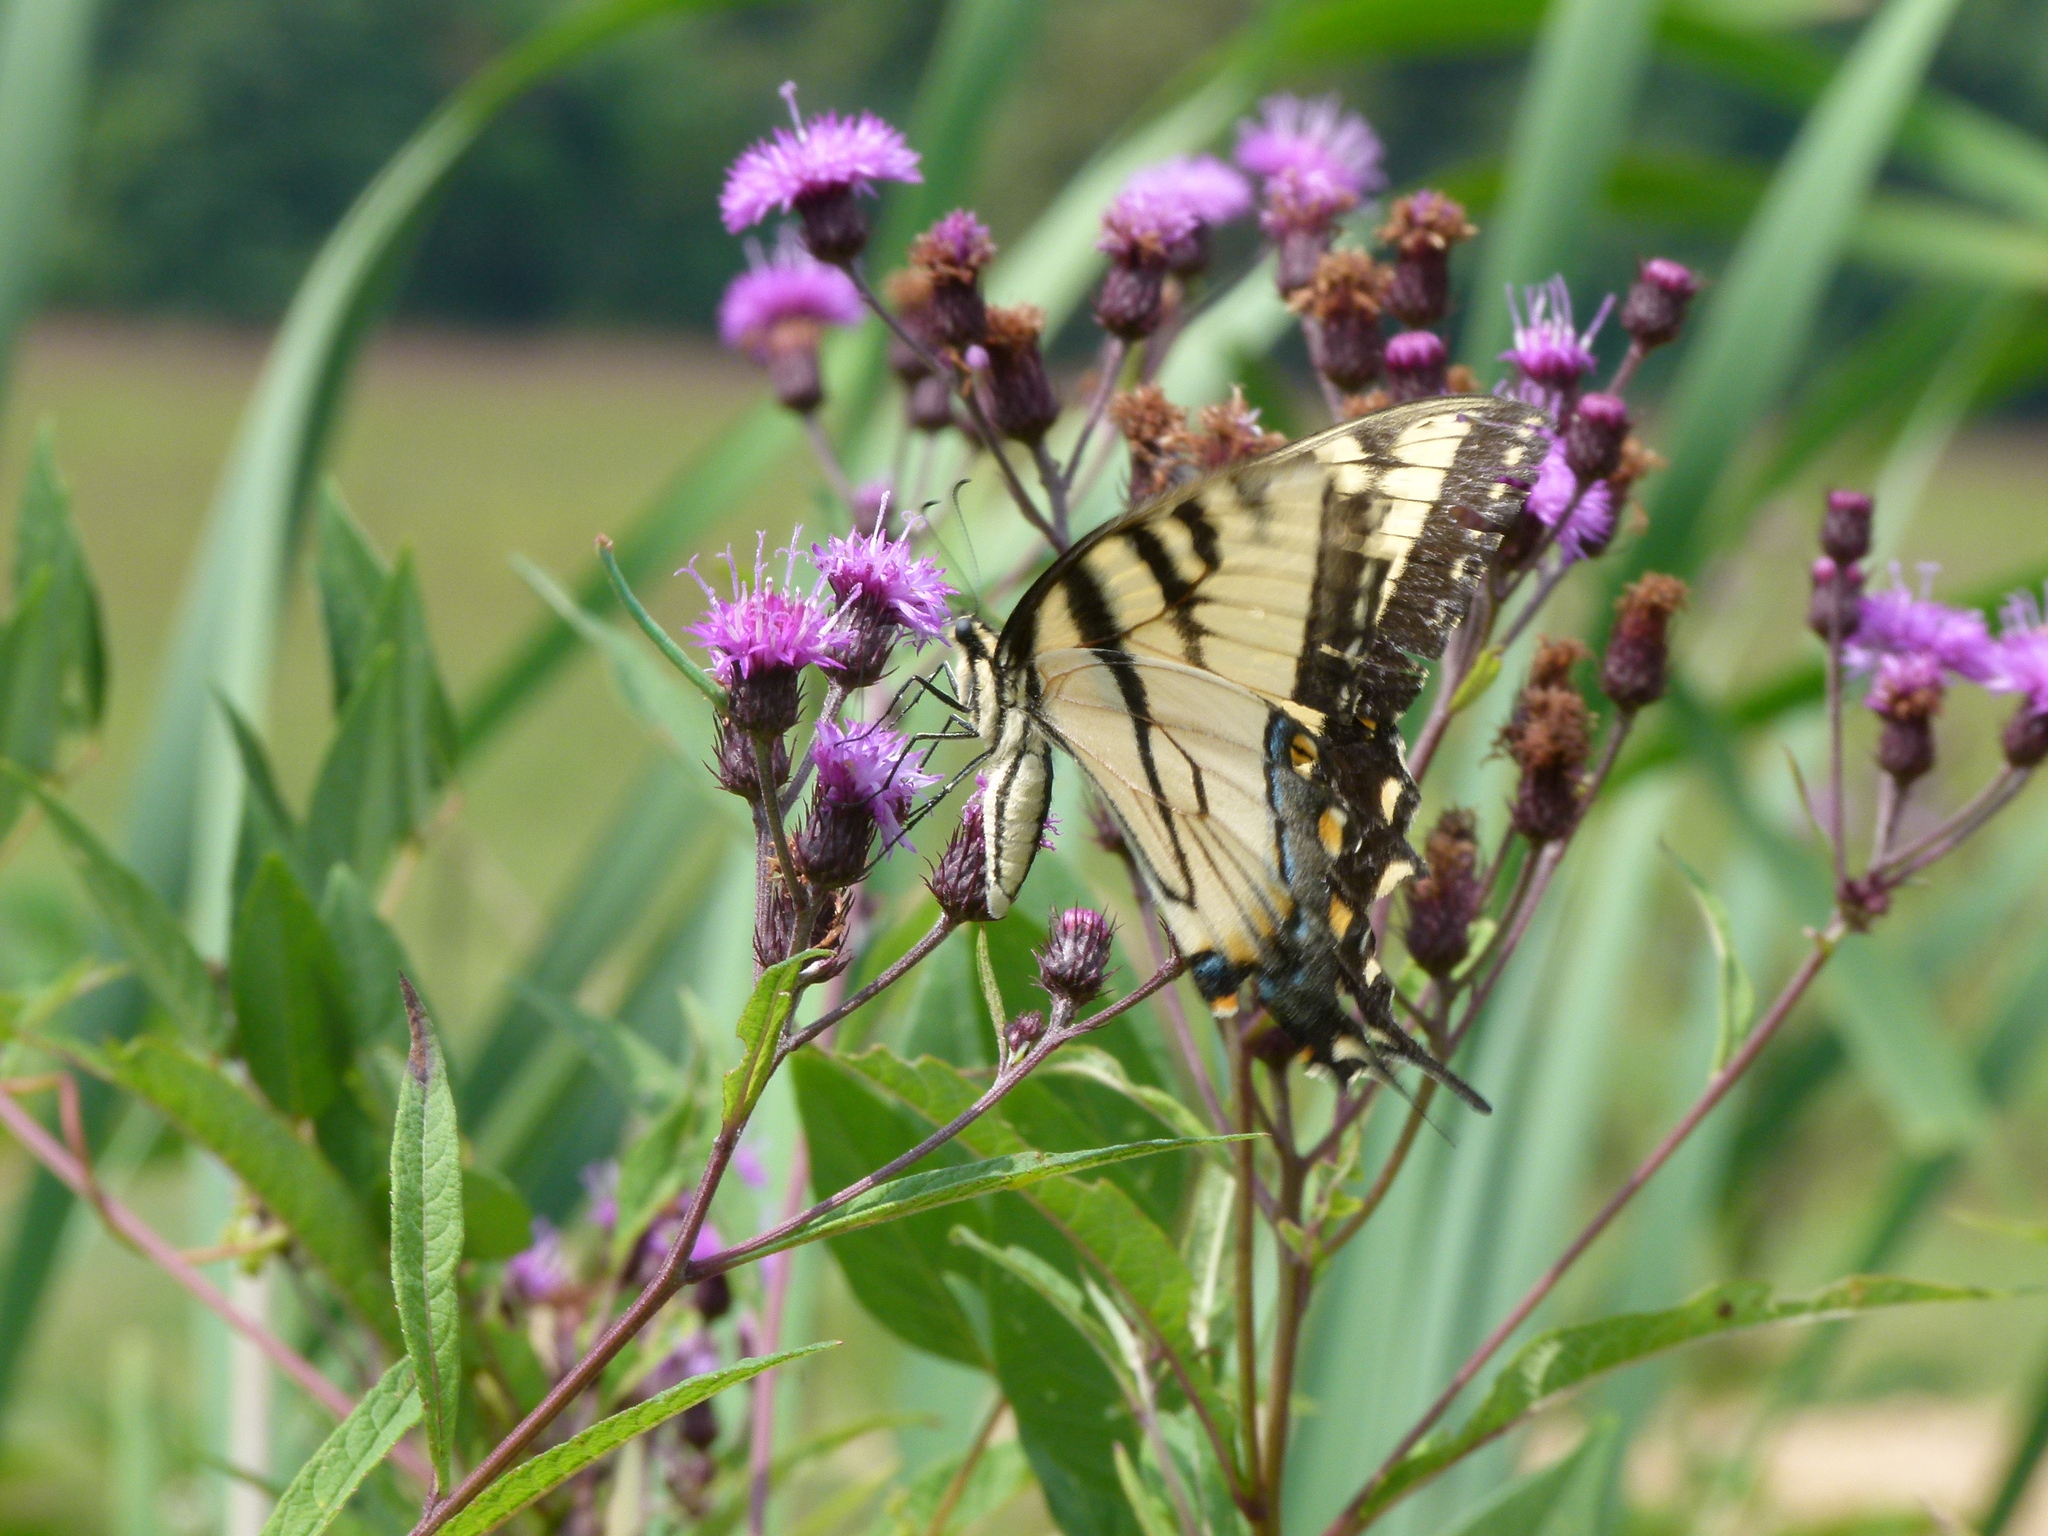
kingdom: Animalia
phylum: Arthropoda
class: Insecta
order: Lepidoptera
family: Papilionidae
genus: Papilio
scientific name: Papilio glaucus
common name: Tiger swallowtail
